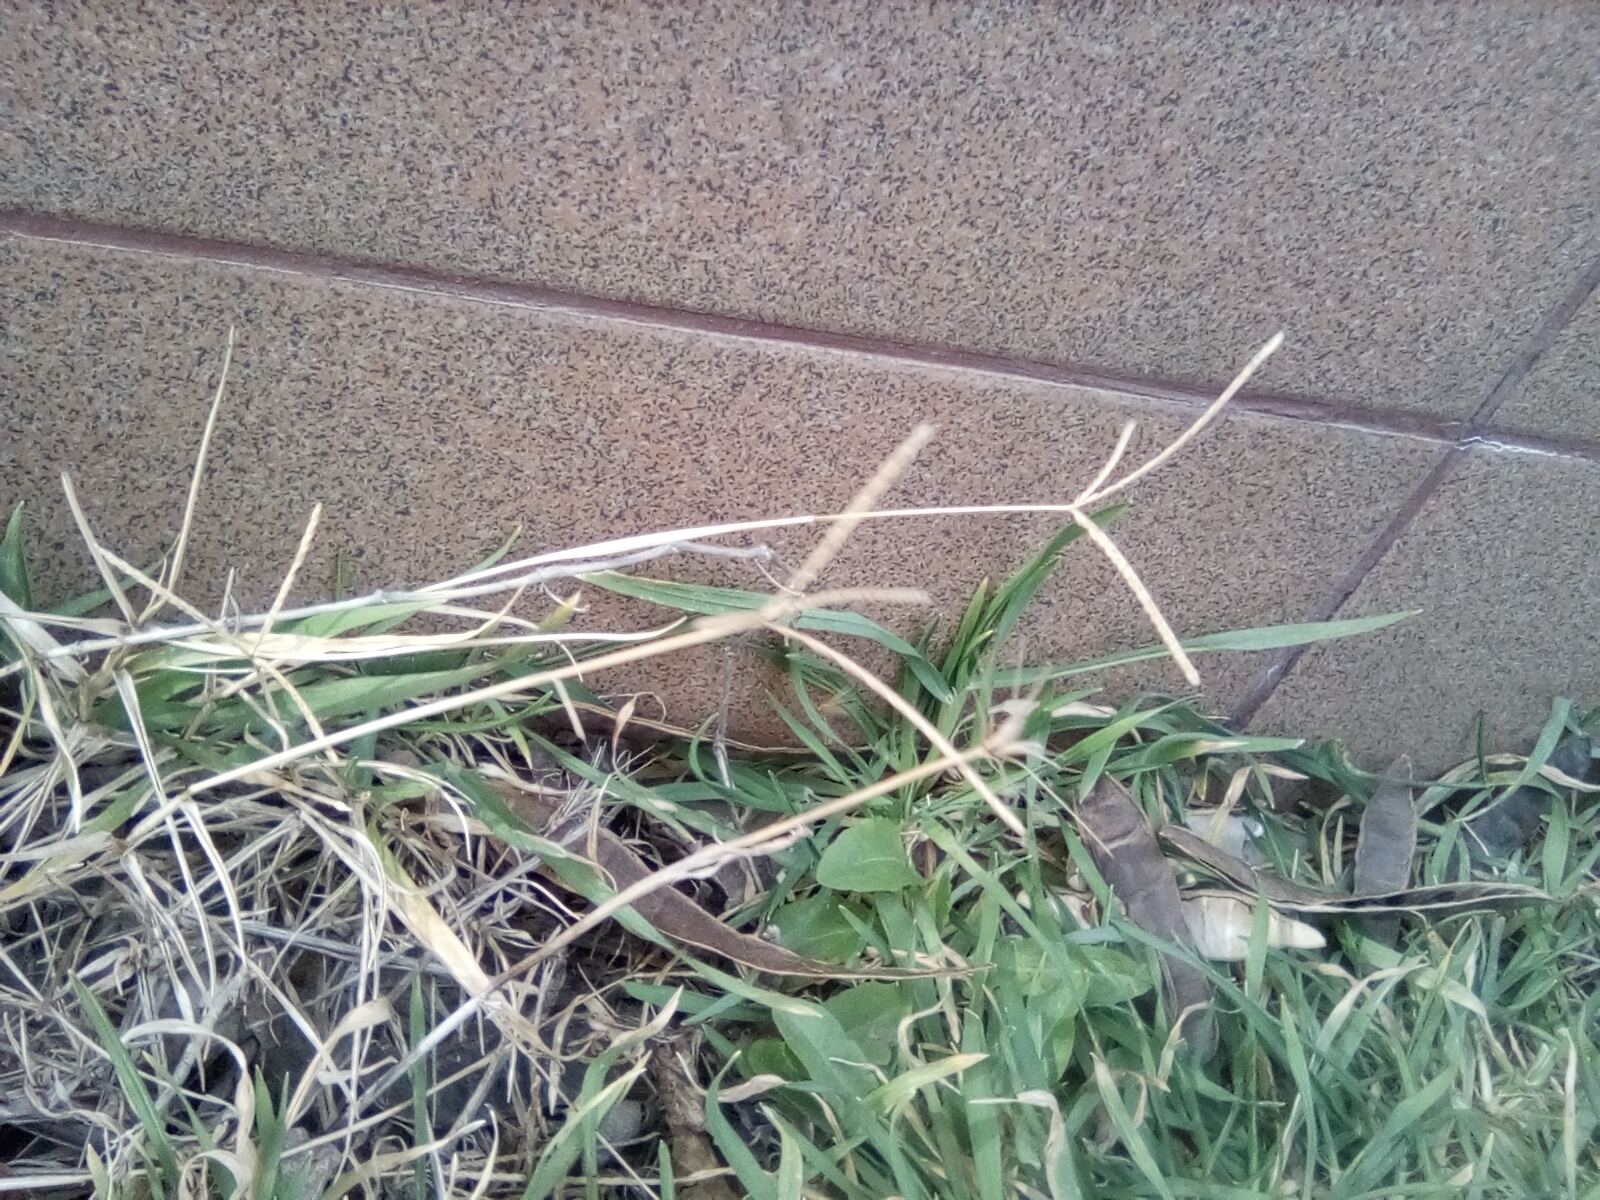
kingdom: Plantae
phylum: Tracheophyta
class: Liliopsida
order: Poales
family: Poaceae
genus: Cynodon
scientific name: Cynodon dactylon
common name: Bermuda grass
